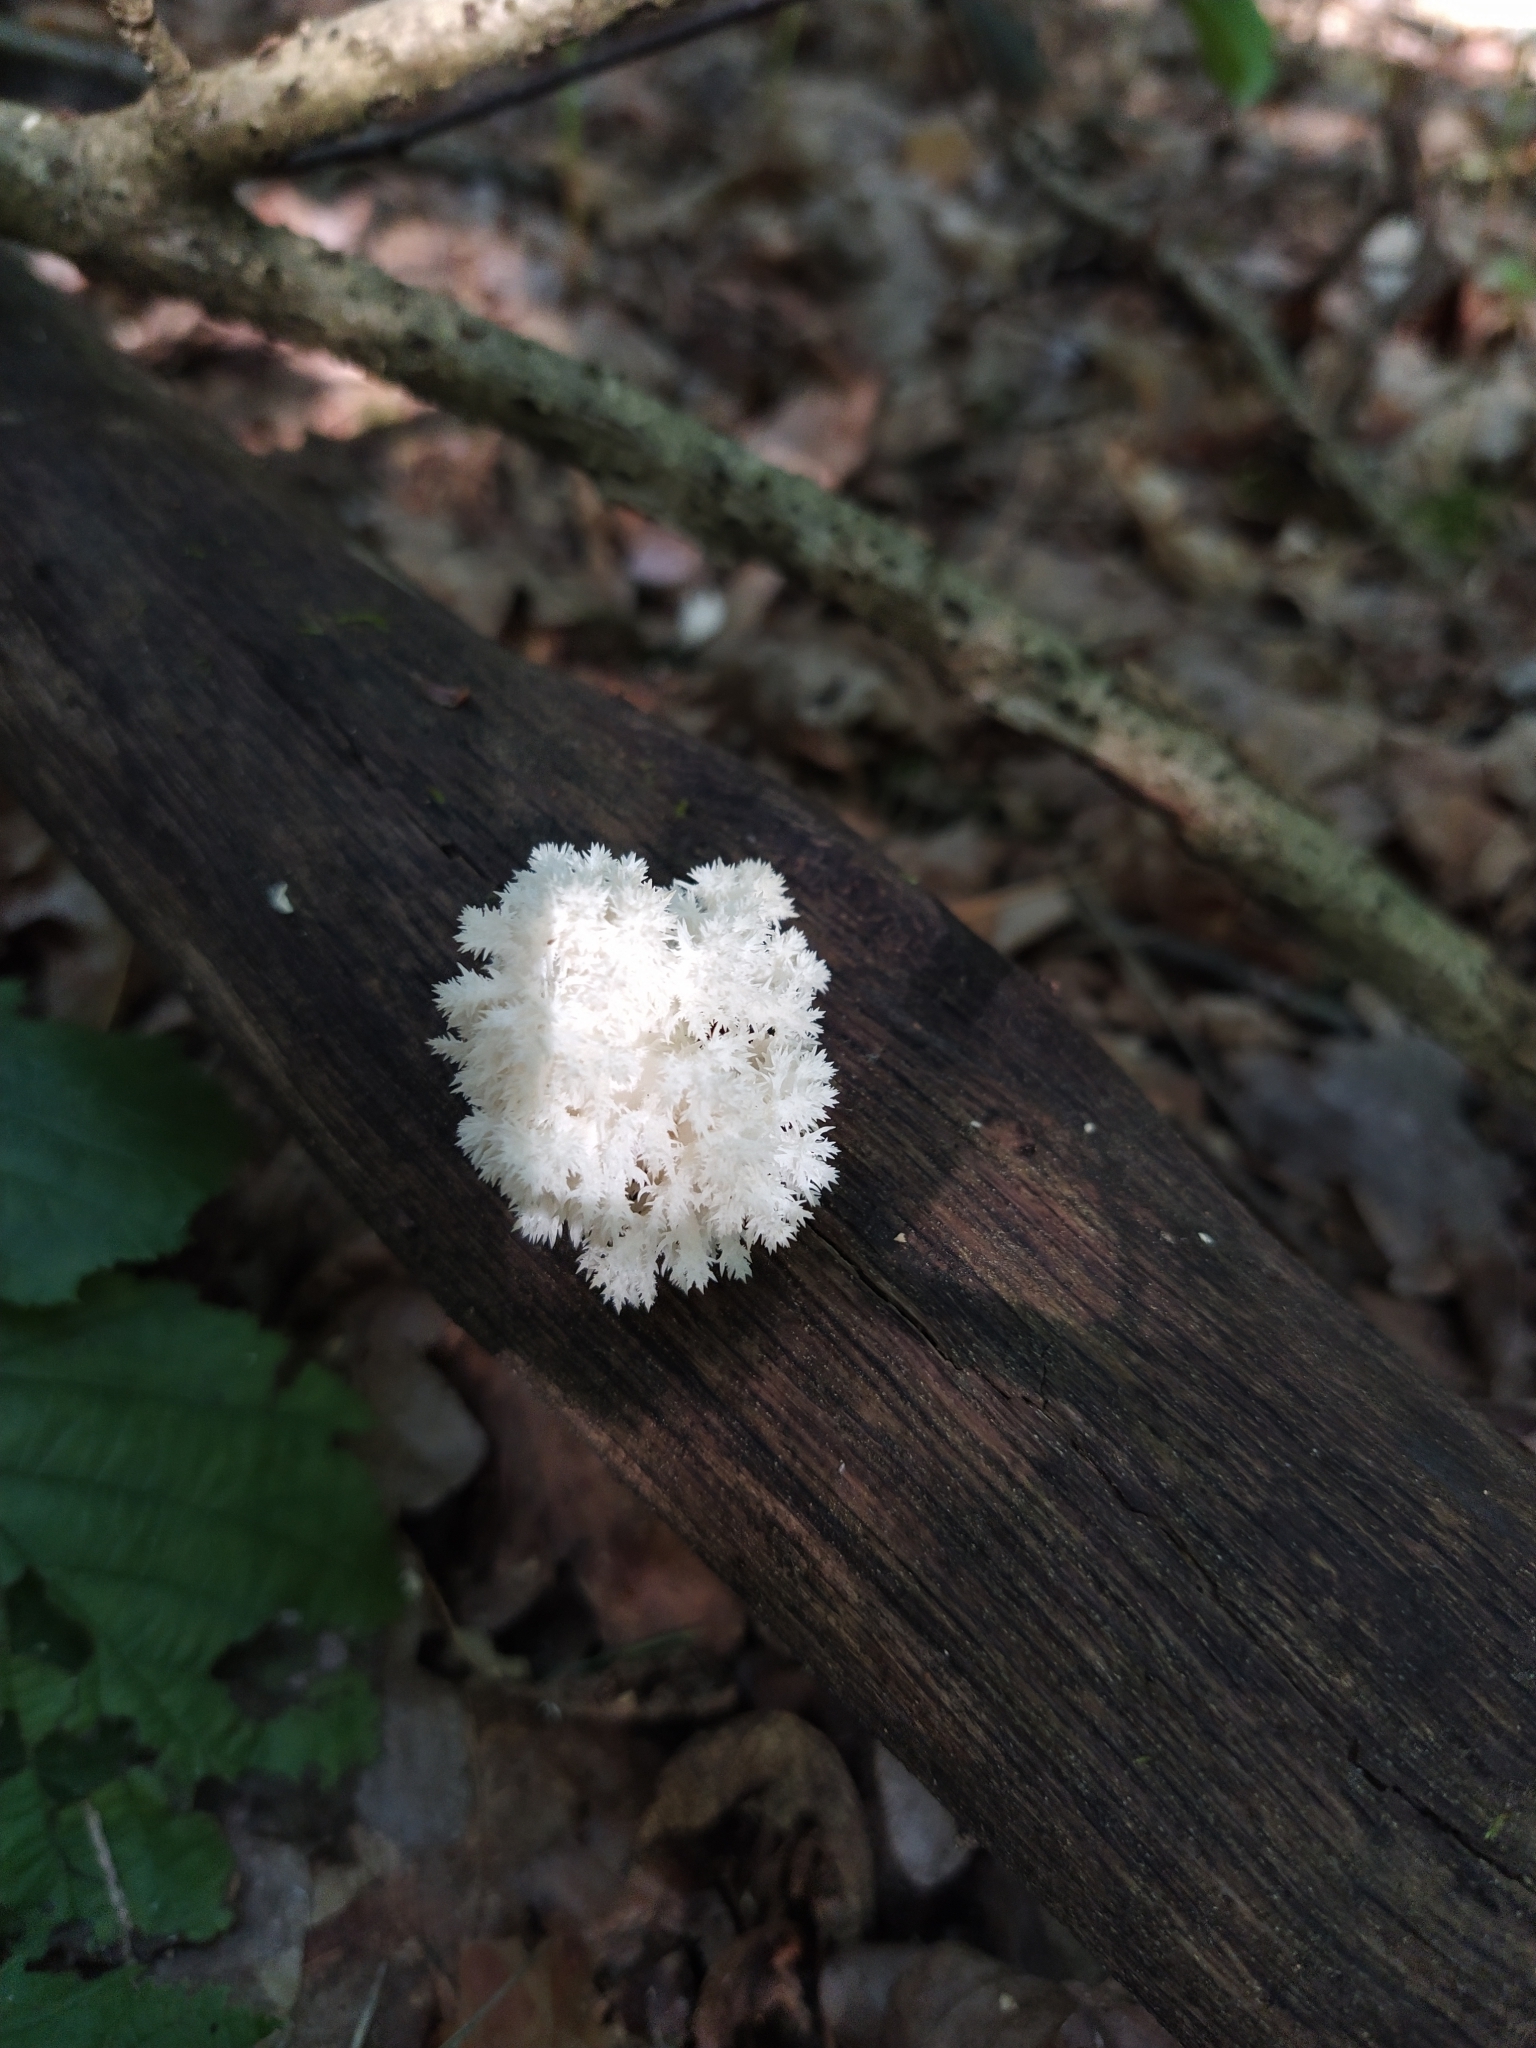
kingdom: Fungi
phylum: Basidiomycota
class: Agaricomycetes
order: Russulales
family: Hericiaceae
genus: Hericium
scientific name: Hericium coralloides
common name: Coral tooth
